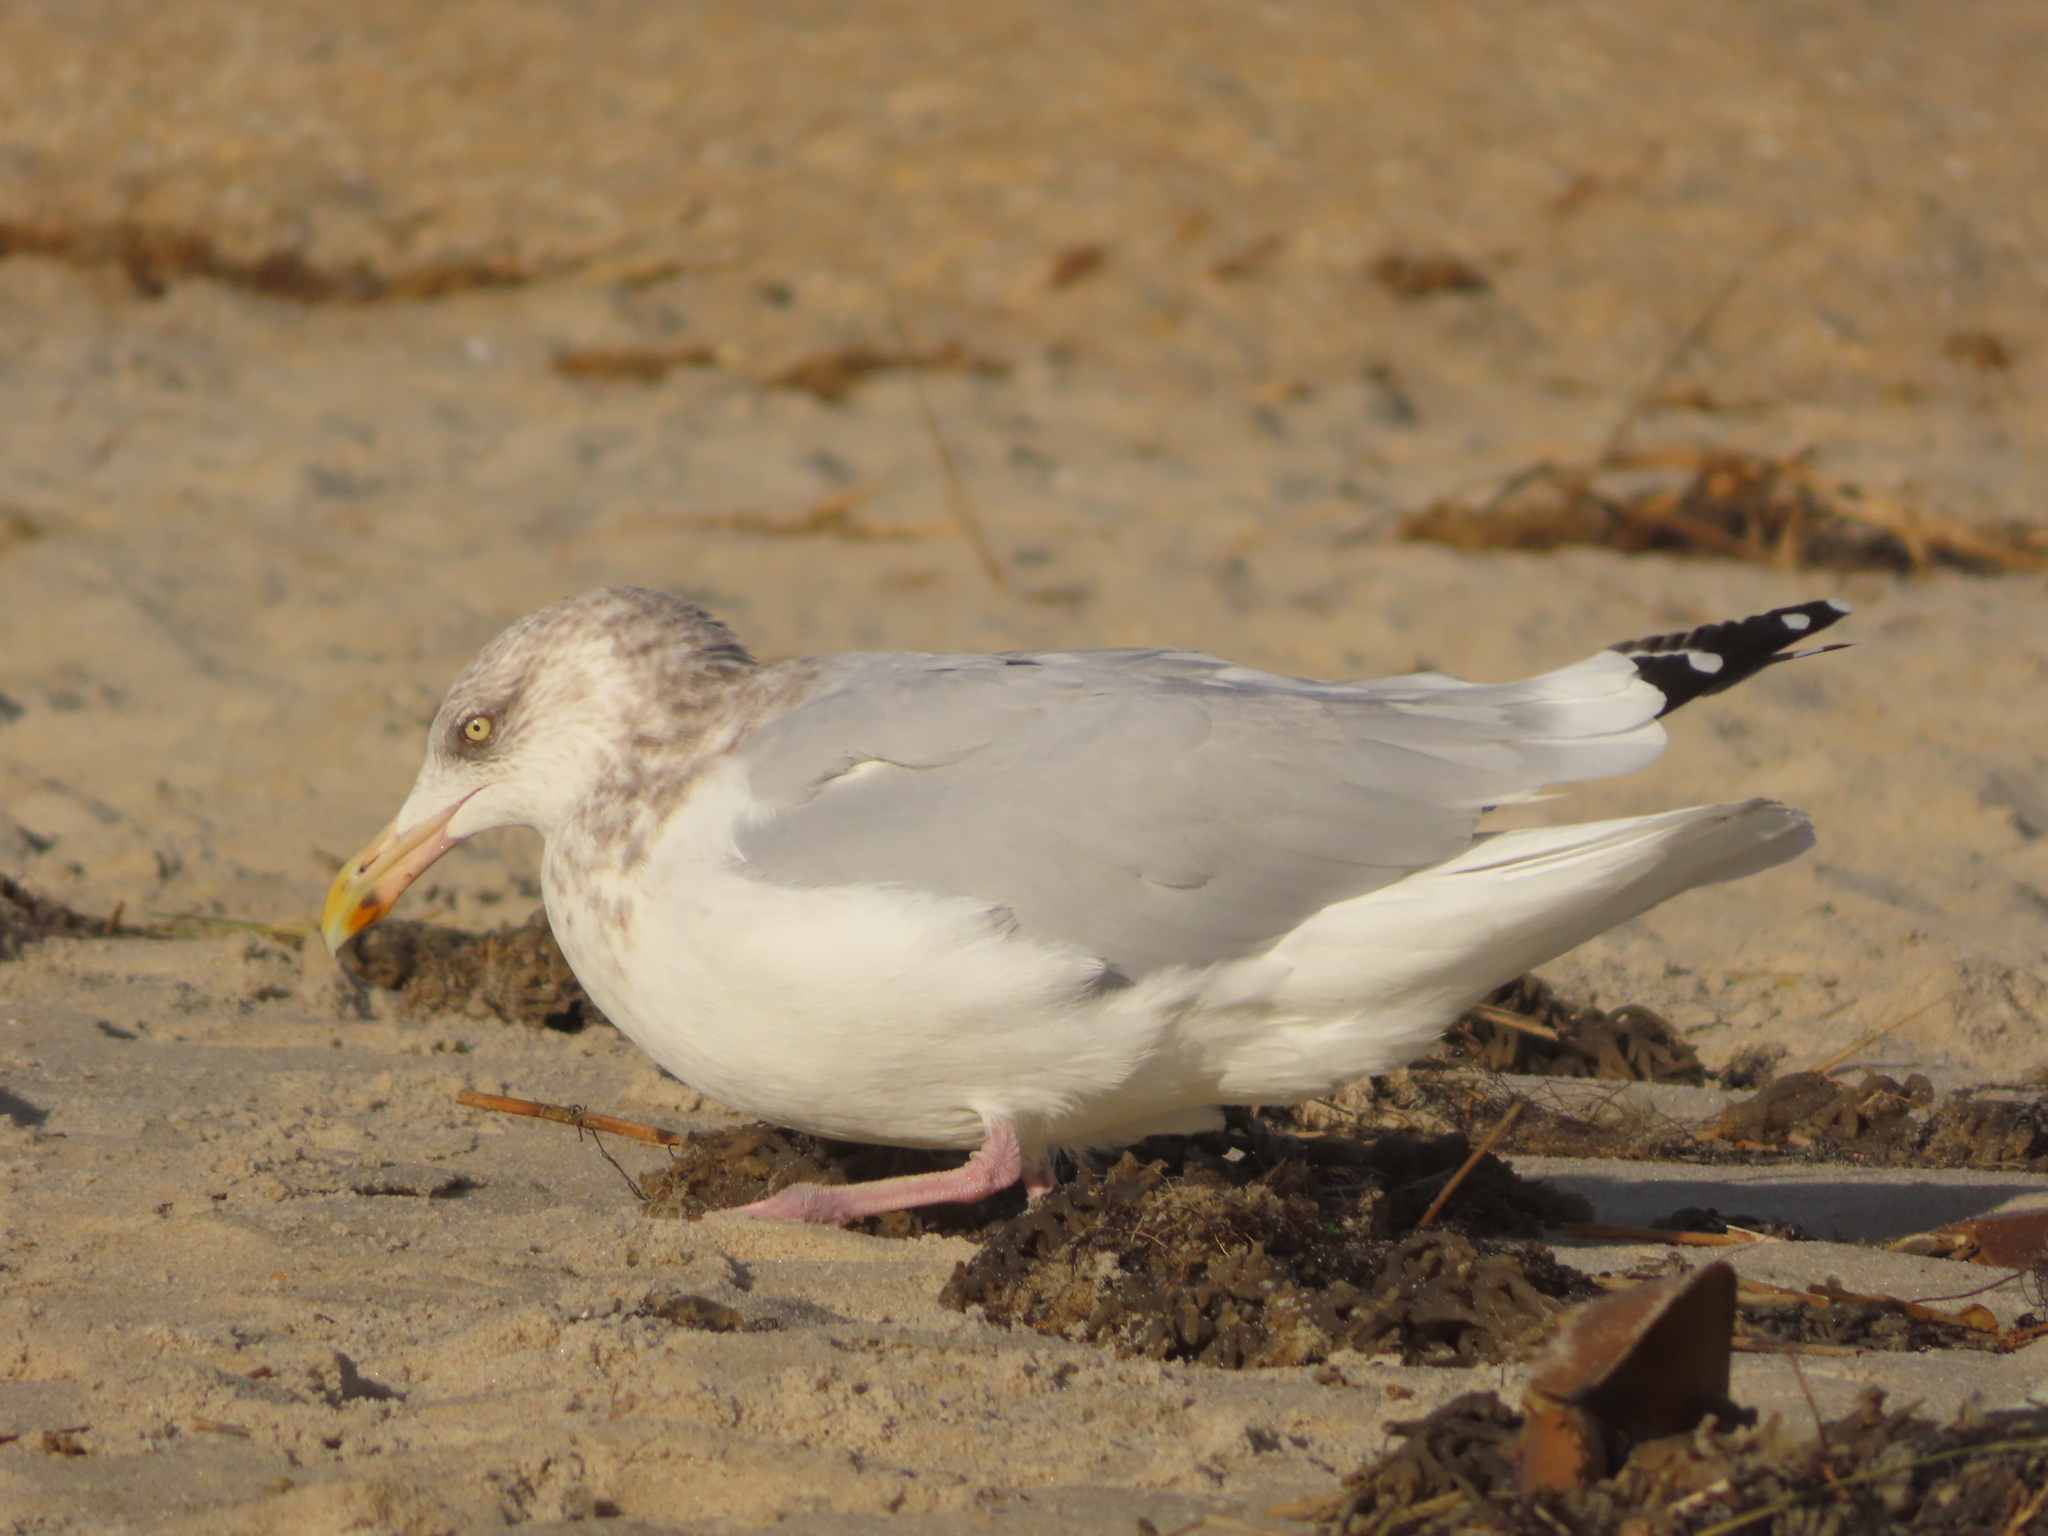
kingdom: Animalia
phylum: Chordata
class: Aves
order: Charadriiformes
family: Laridae
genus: Larus
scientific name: Larus argentatus
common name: Herring gull
